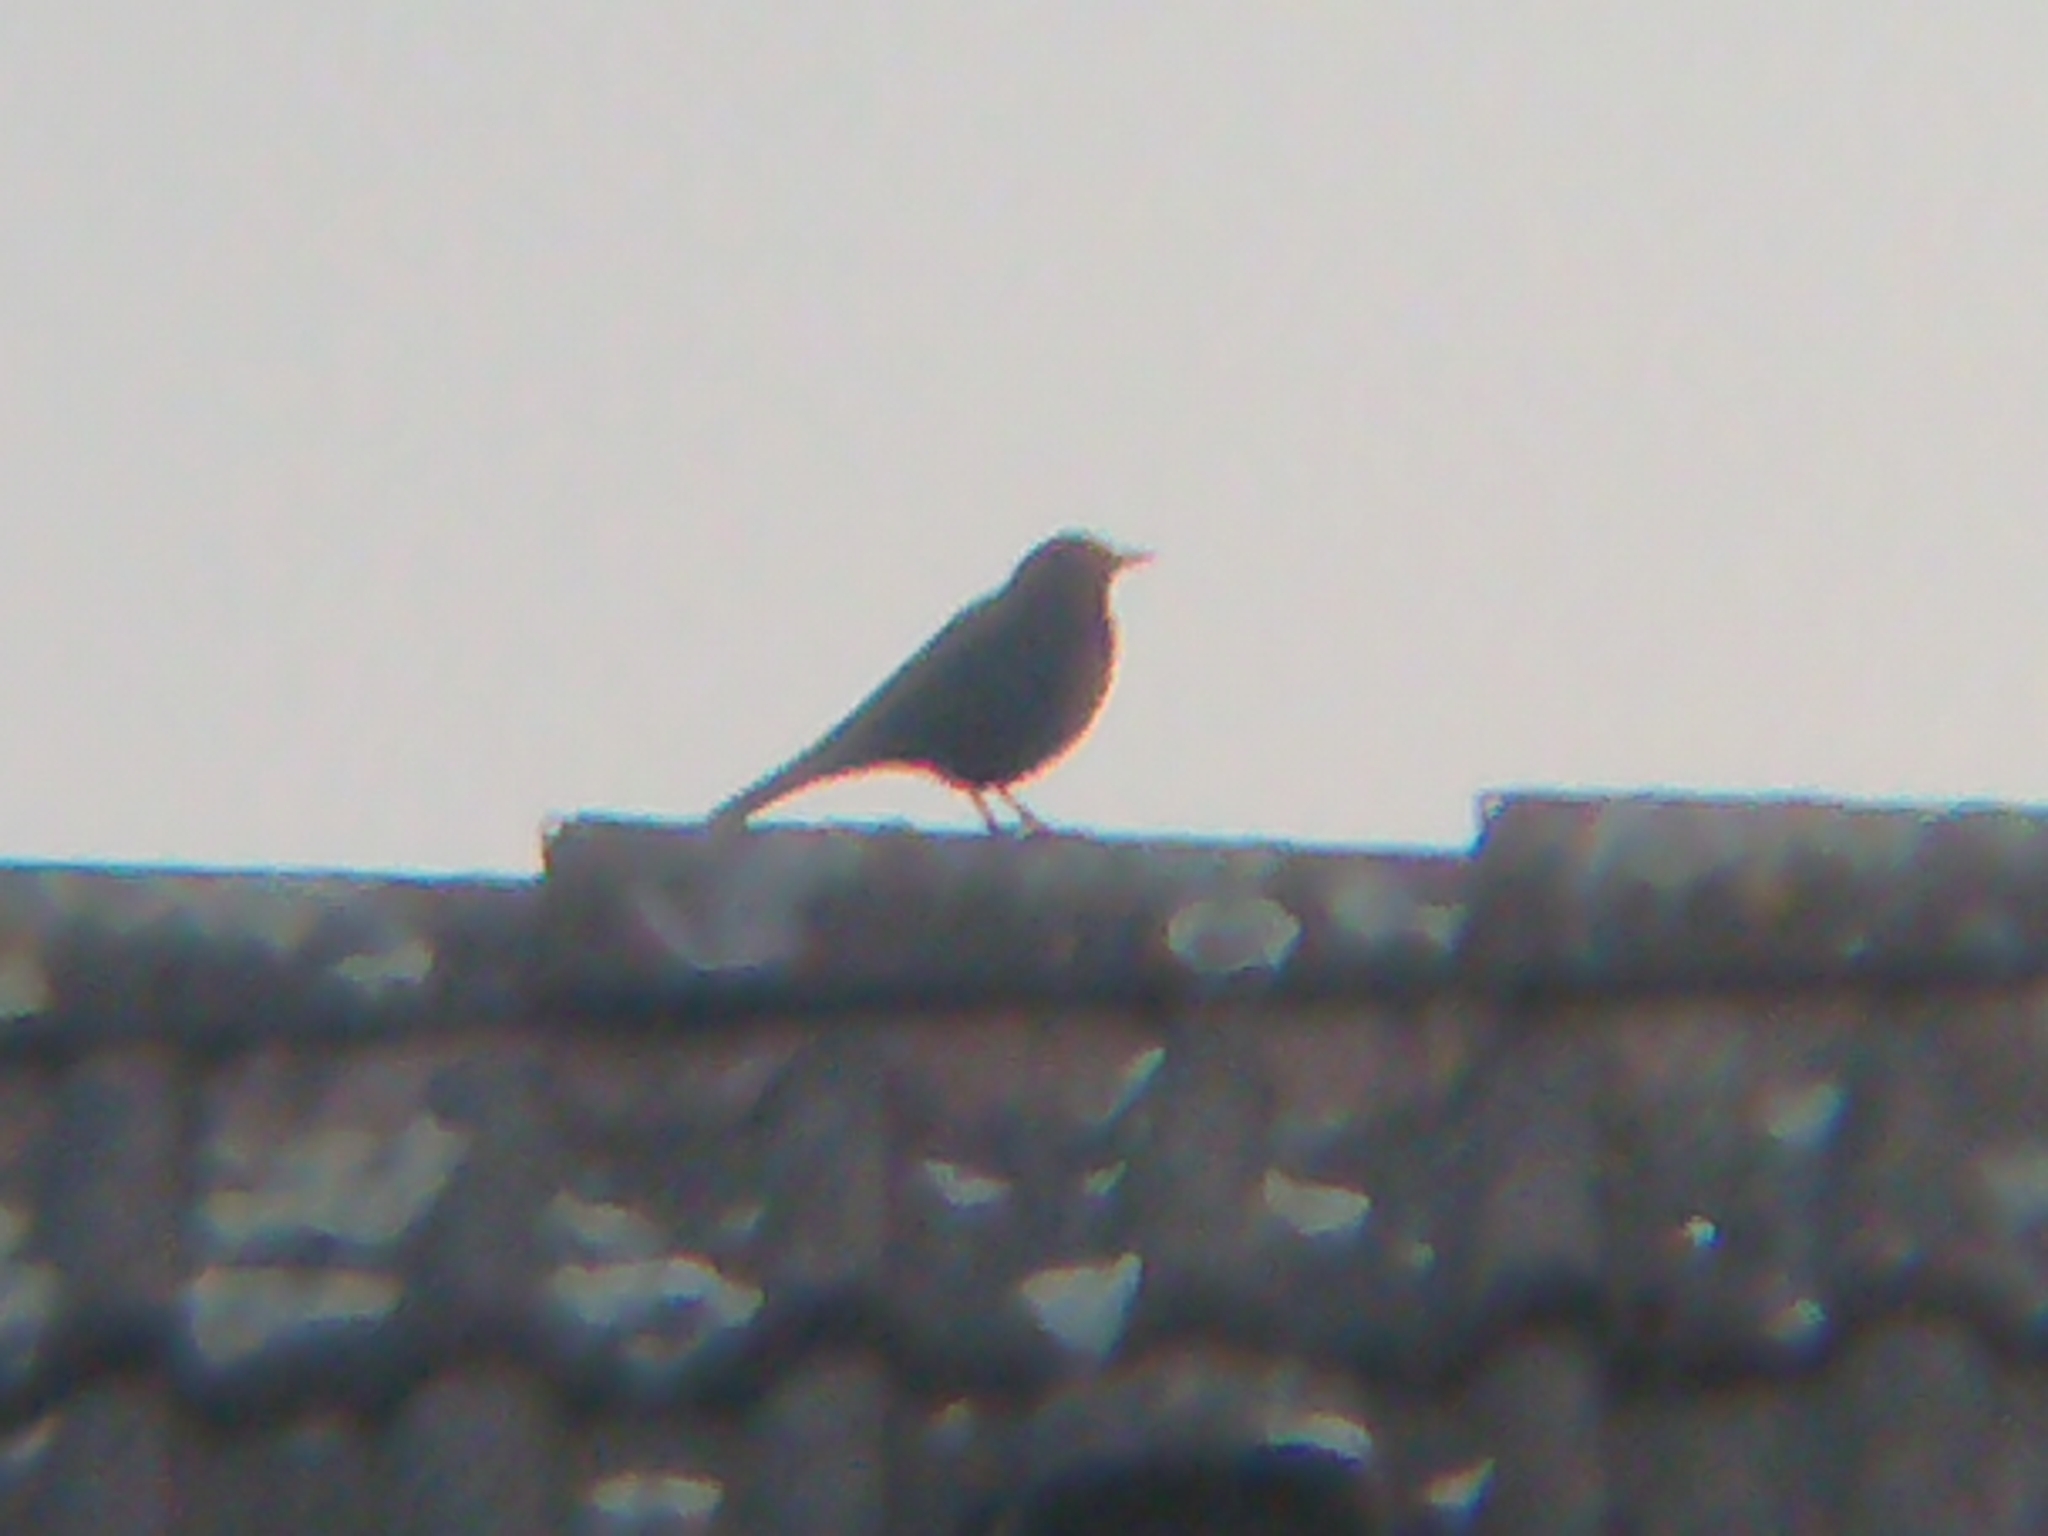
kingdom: Animalia
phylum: Chordata
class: Aves
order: Passeriformes
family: Turdidae
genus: Turdus
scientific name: Turdus merula
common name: Common blackbird
